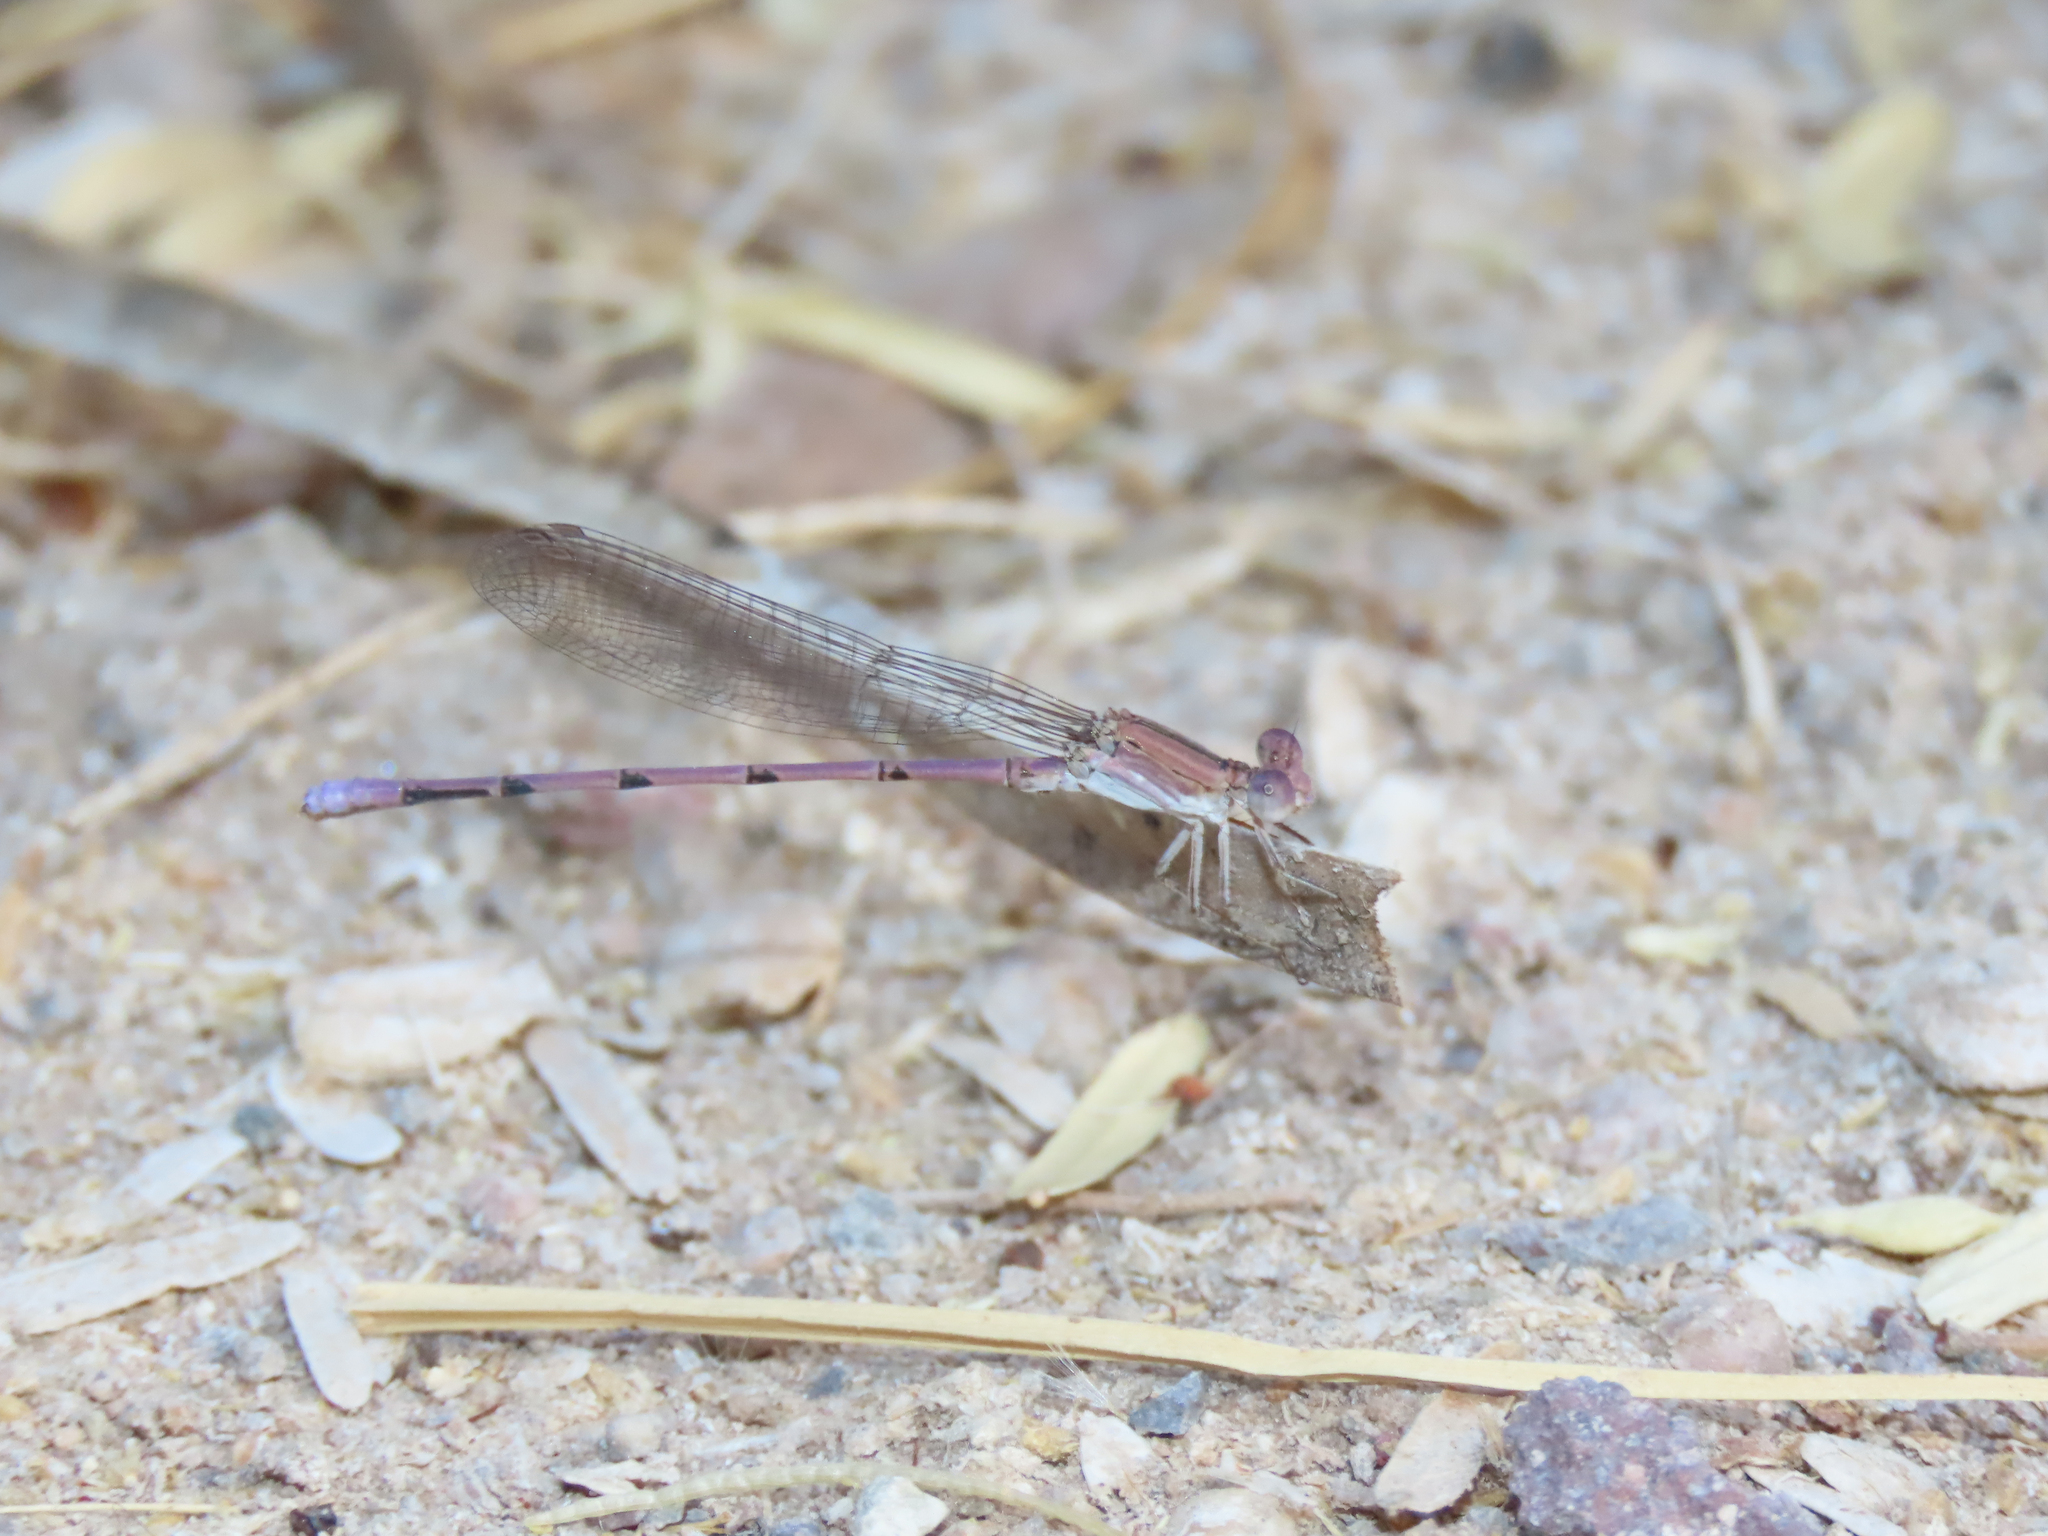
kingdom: Animalia
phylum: Arthropoda
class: Insecta
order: Odonata
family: Coenagrionidae
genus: Argia
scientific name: Argia pallens
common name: Amethyst dancer
